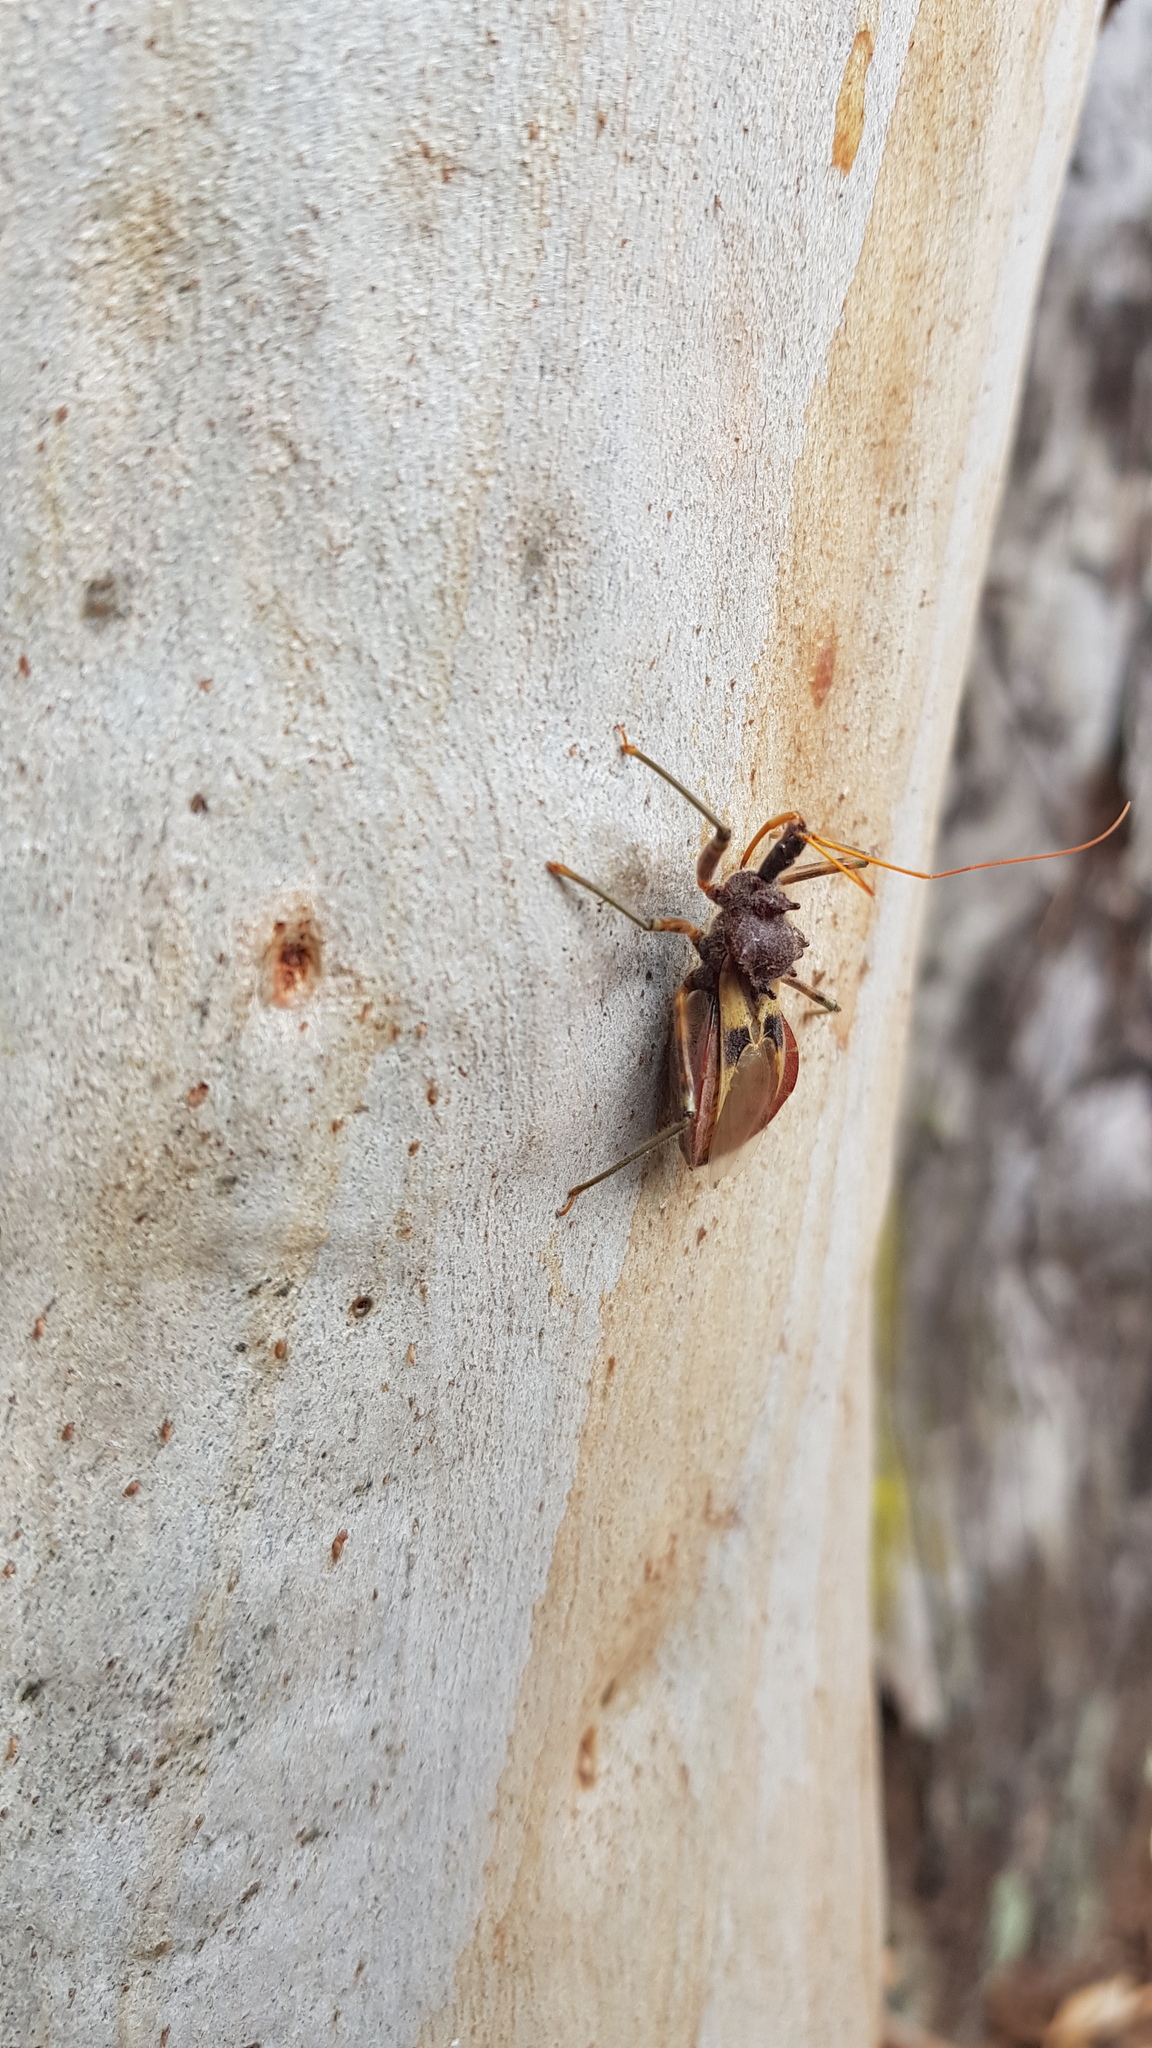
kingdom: Animalia
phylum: Arthropoda
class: Insecta
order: Hemiptera
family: Reduviidae
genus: Pristhesancus
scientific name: Pristhesancus plagipennis
